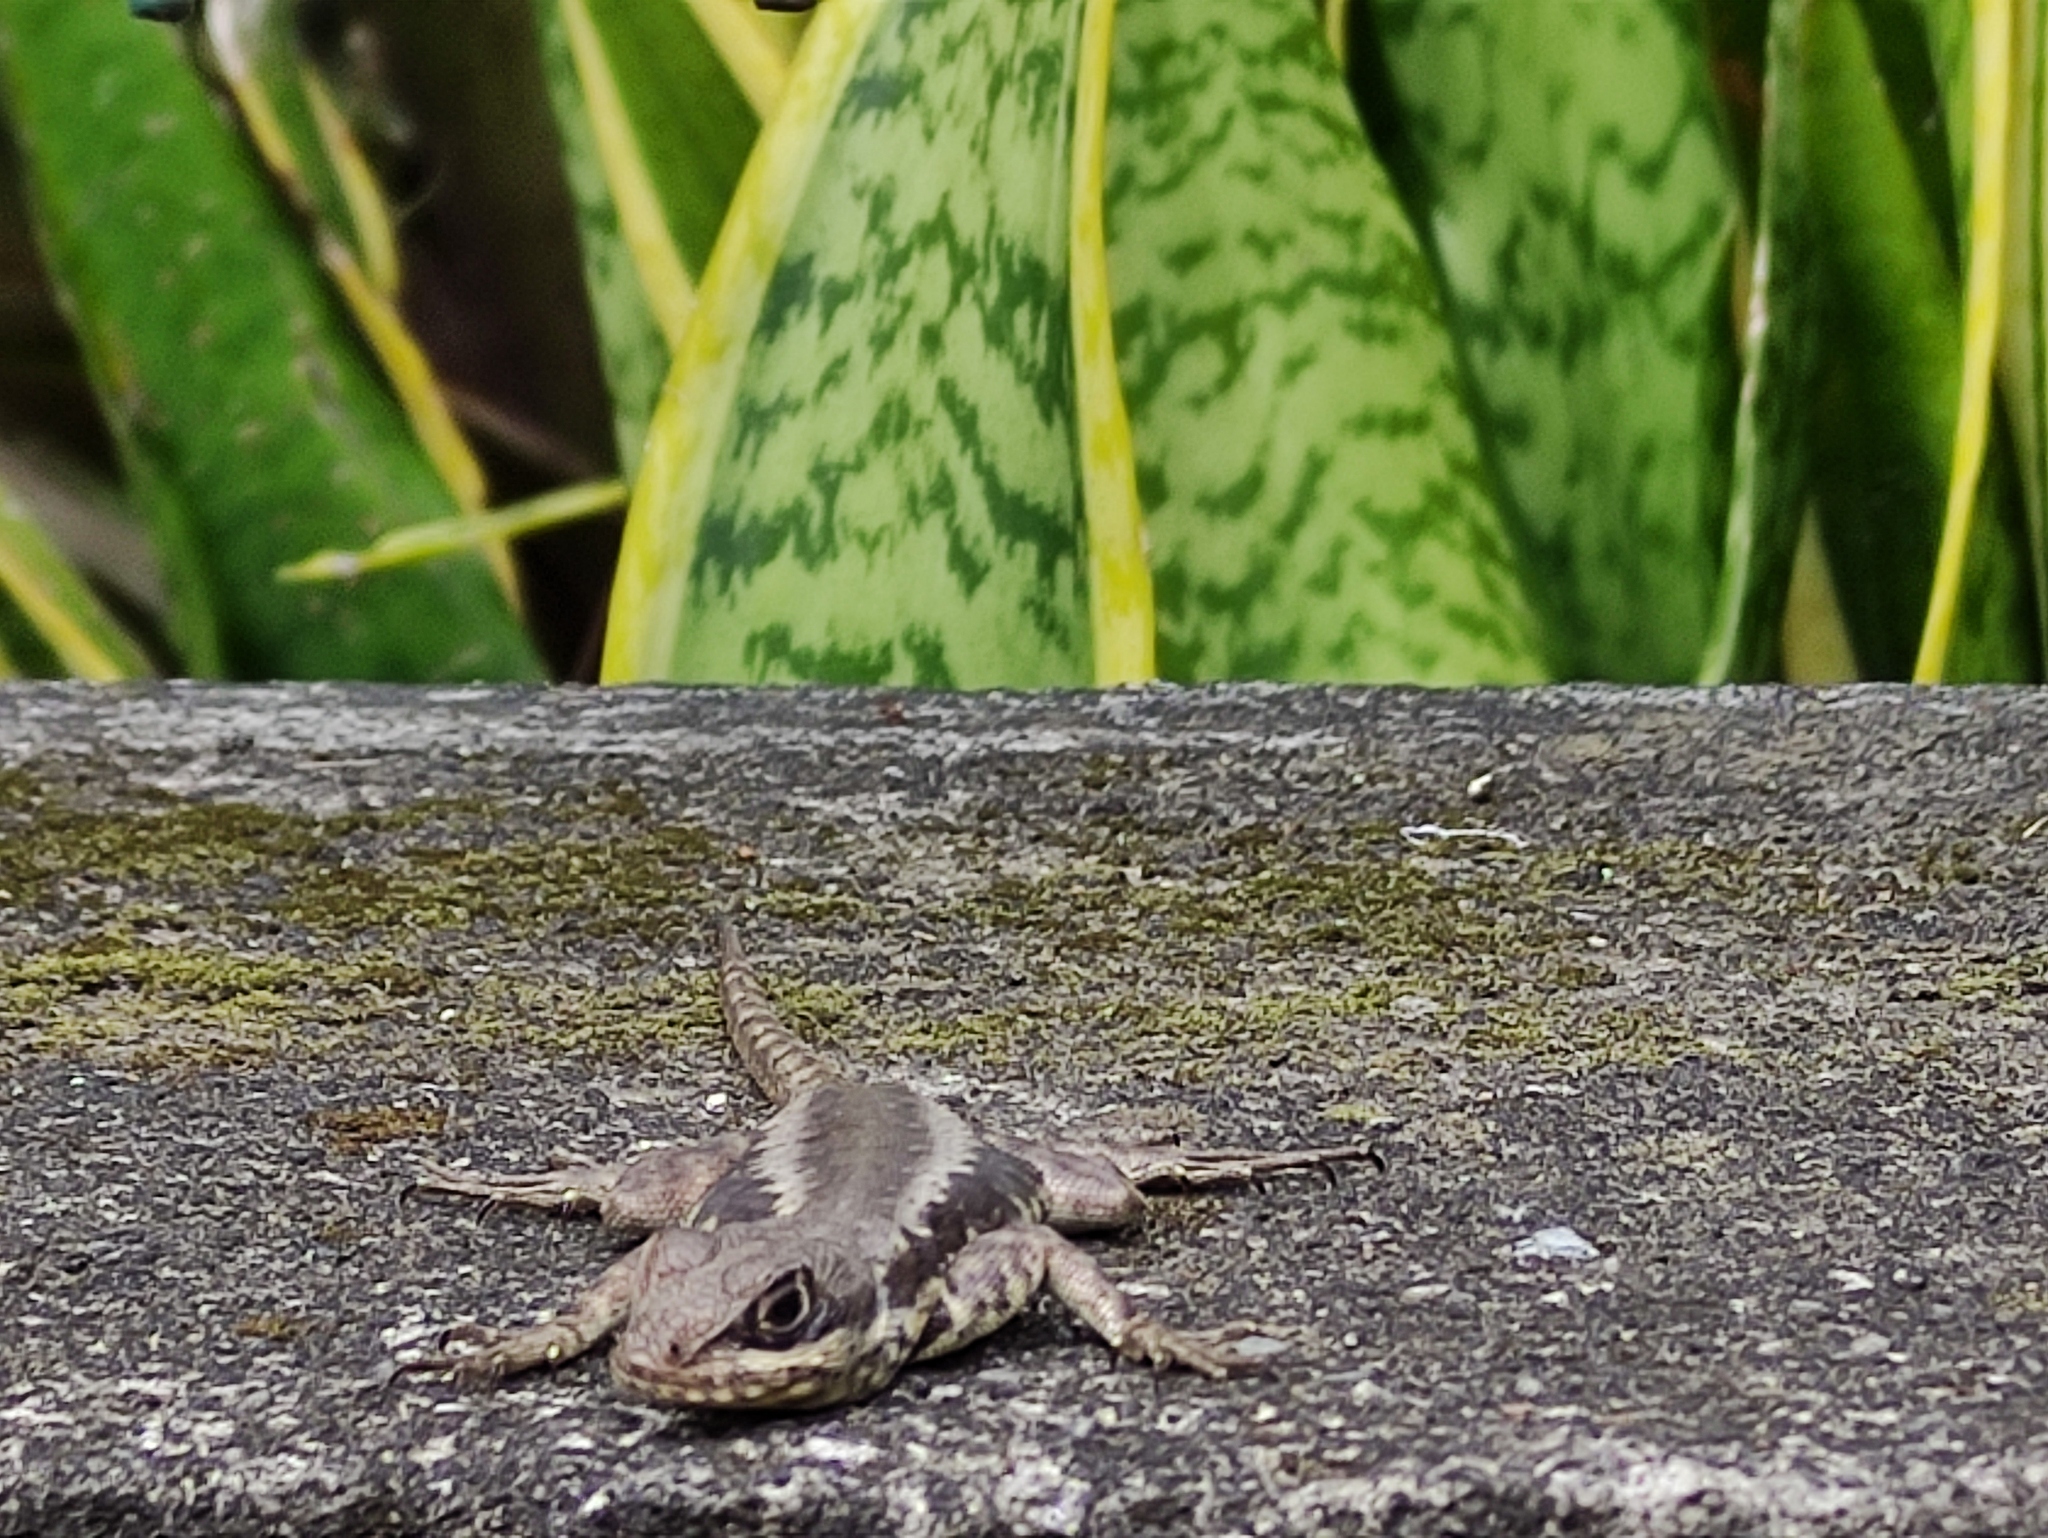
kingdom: Animalia
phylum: Chordata
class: Squamata
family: Tropiduridae
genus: Tropidurus
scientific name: Tropidurus torquatus
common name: Amazon lava lizard
